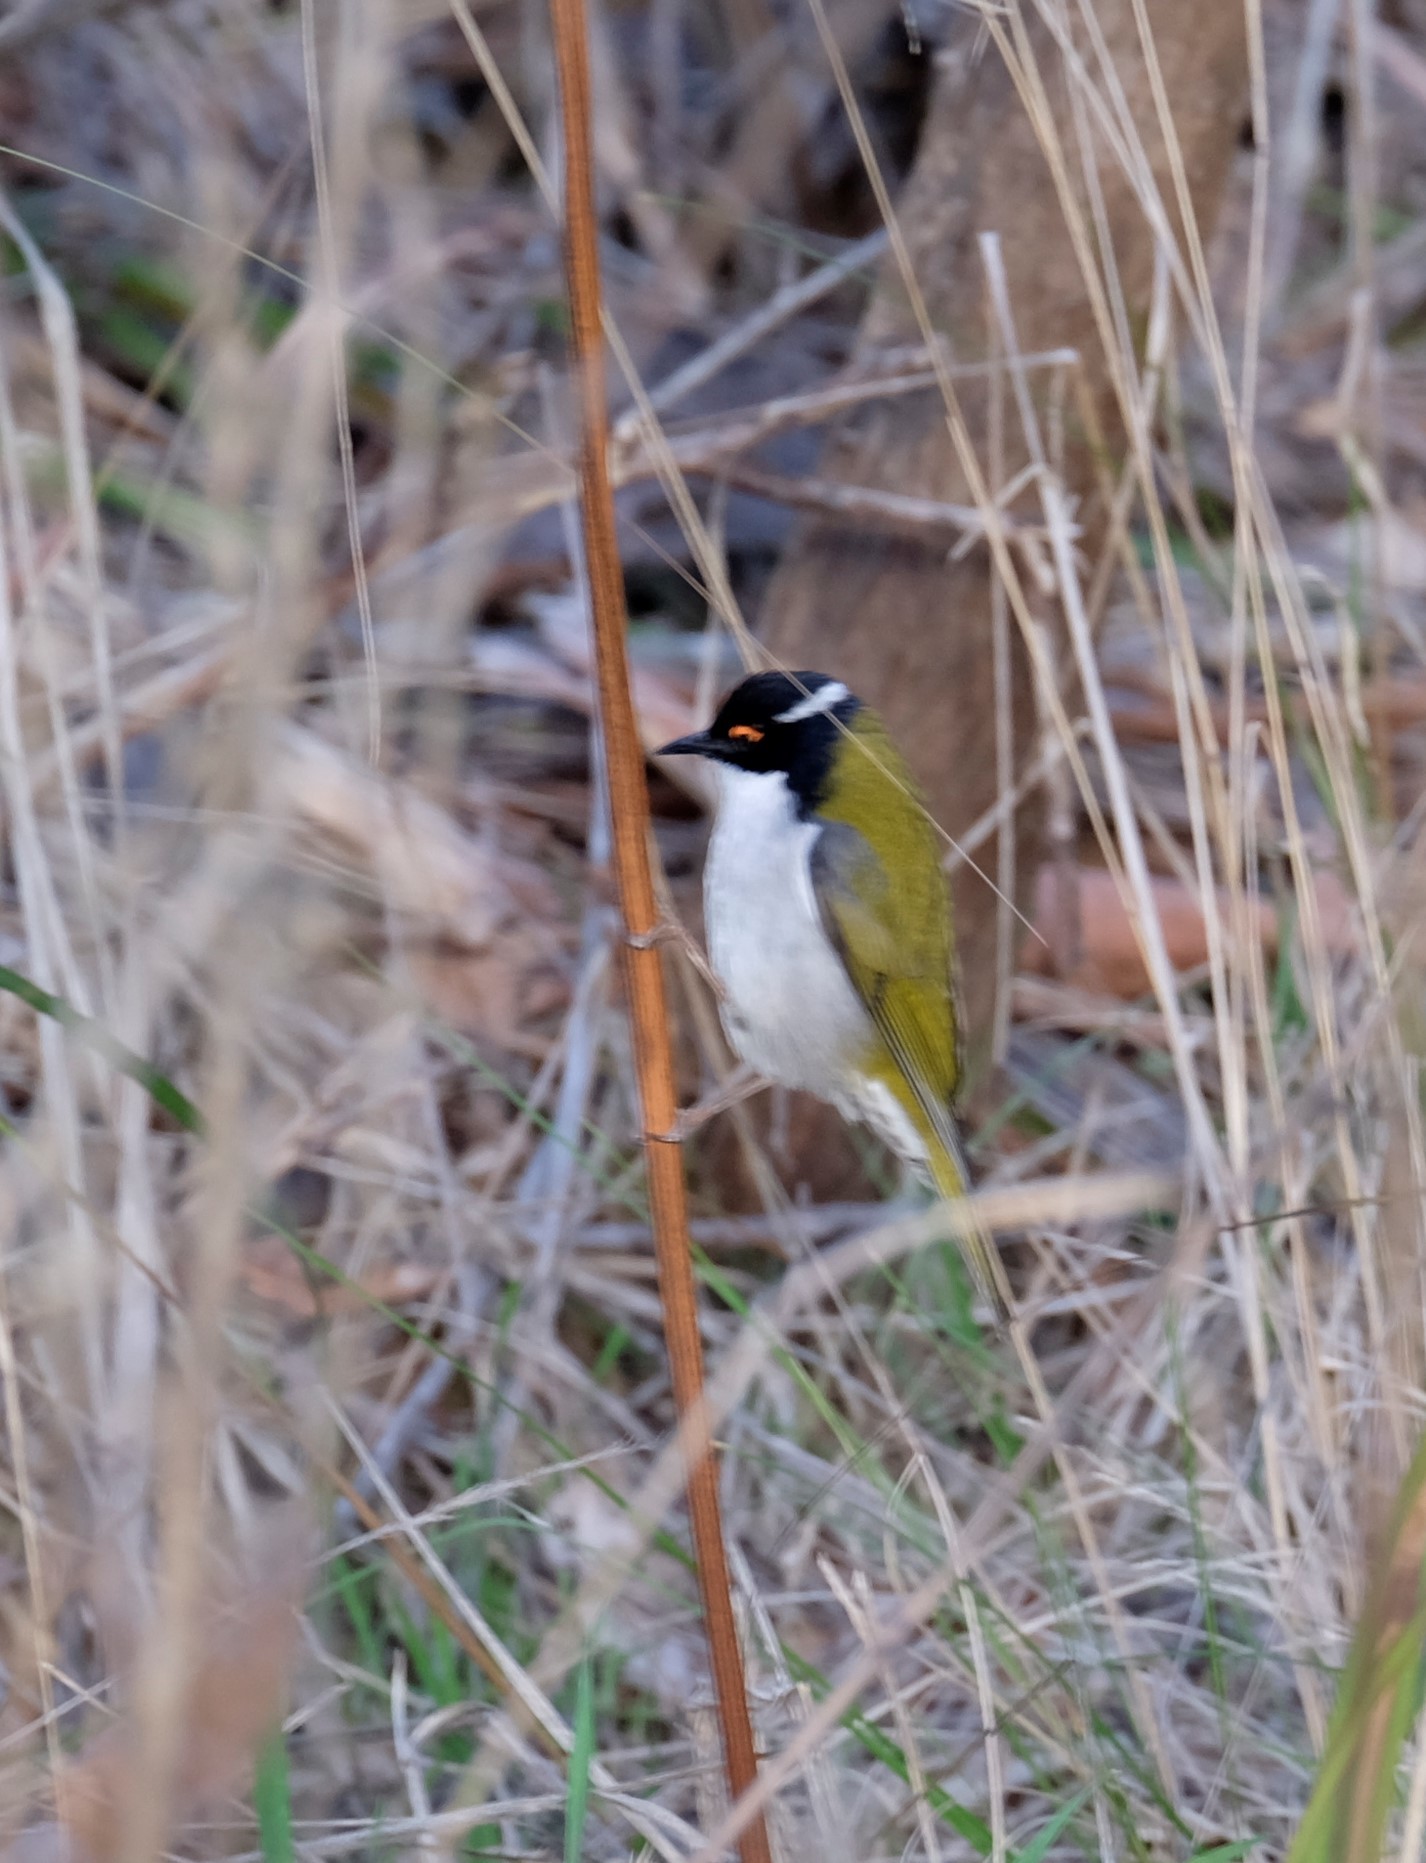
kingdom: Animalia
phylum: Chordata
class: Aves
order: Passeriformes
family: Meliphagidae
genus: Melithreptus
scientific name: Melithreptus lunatus
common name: White-naped honeyeater
